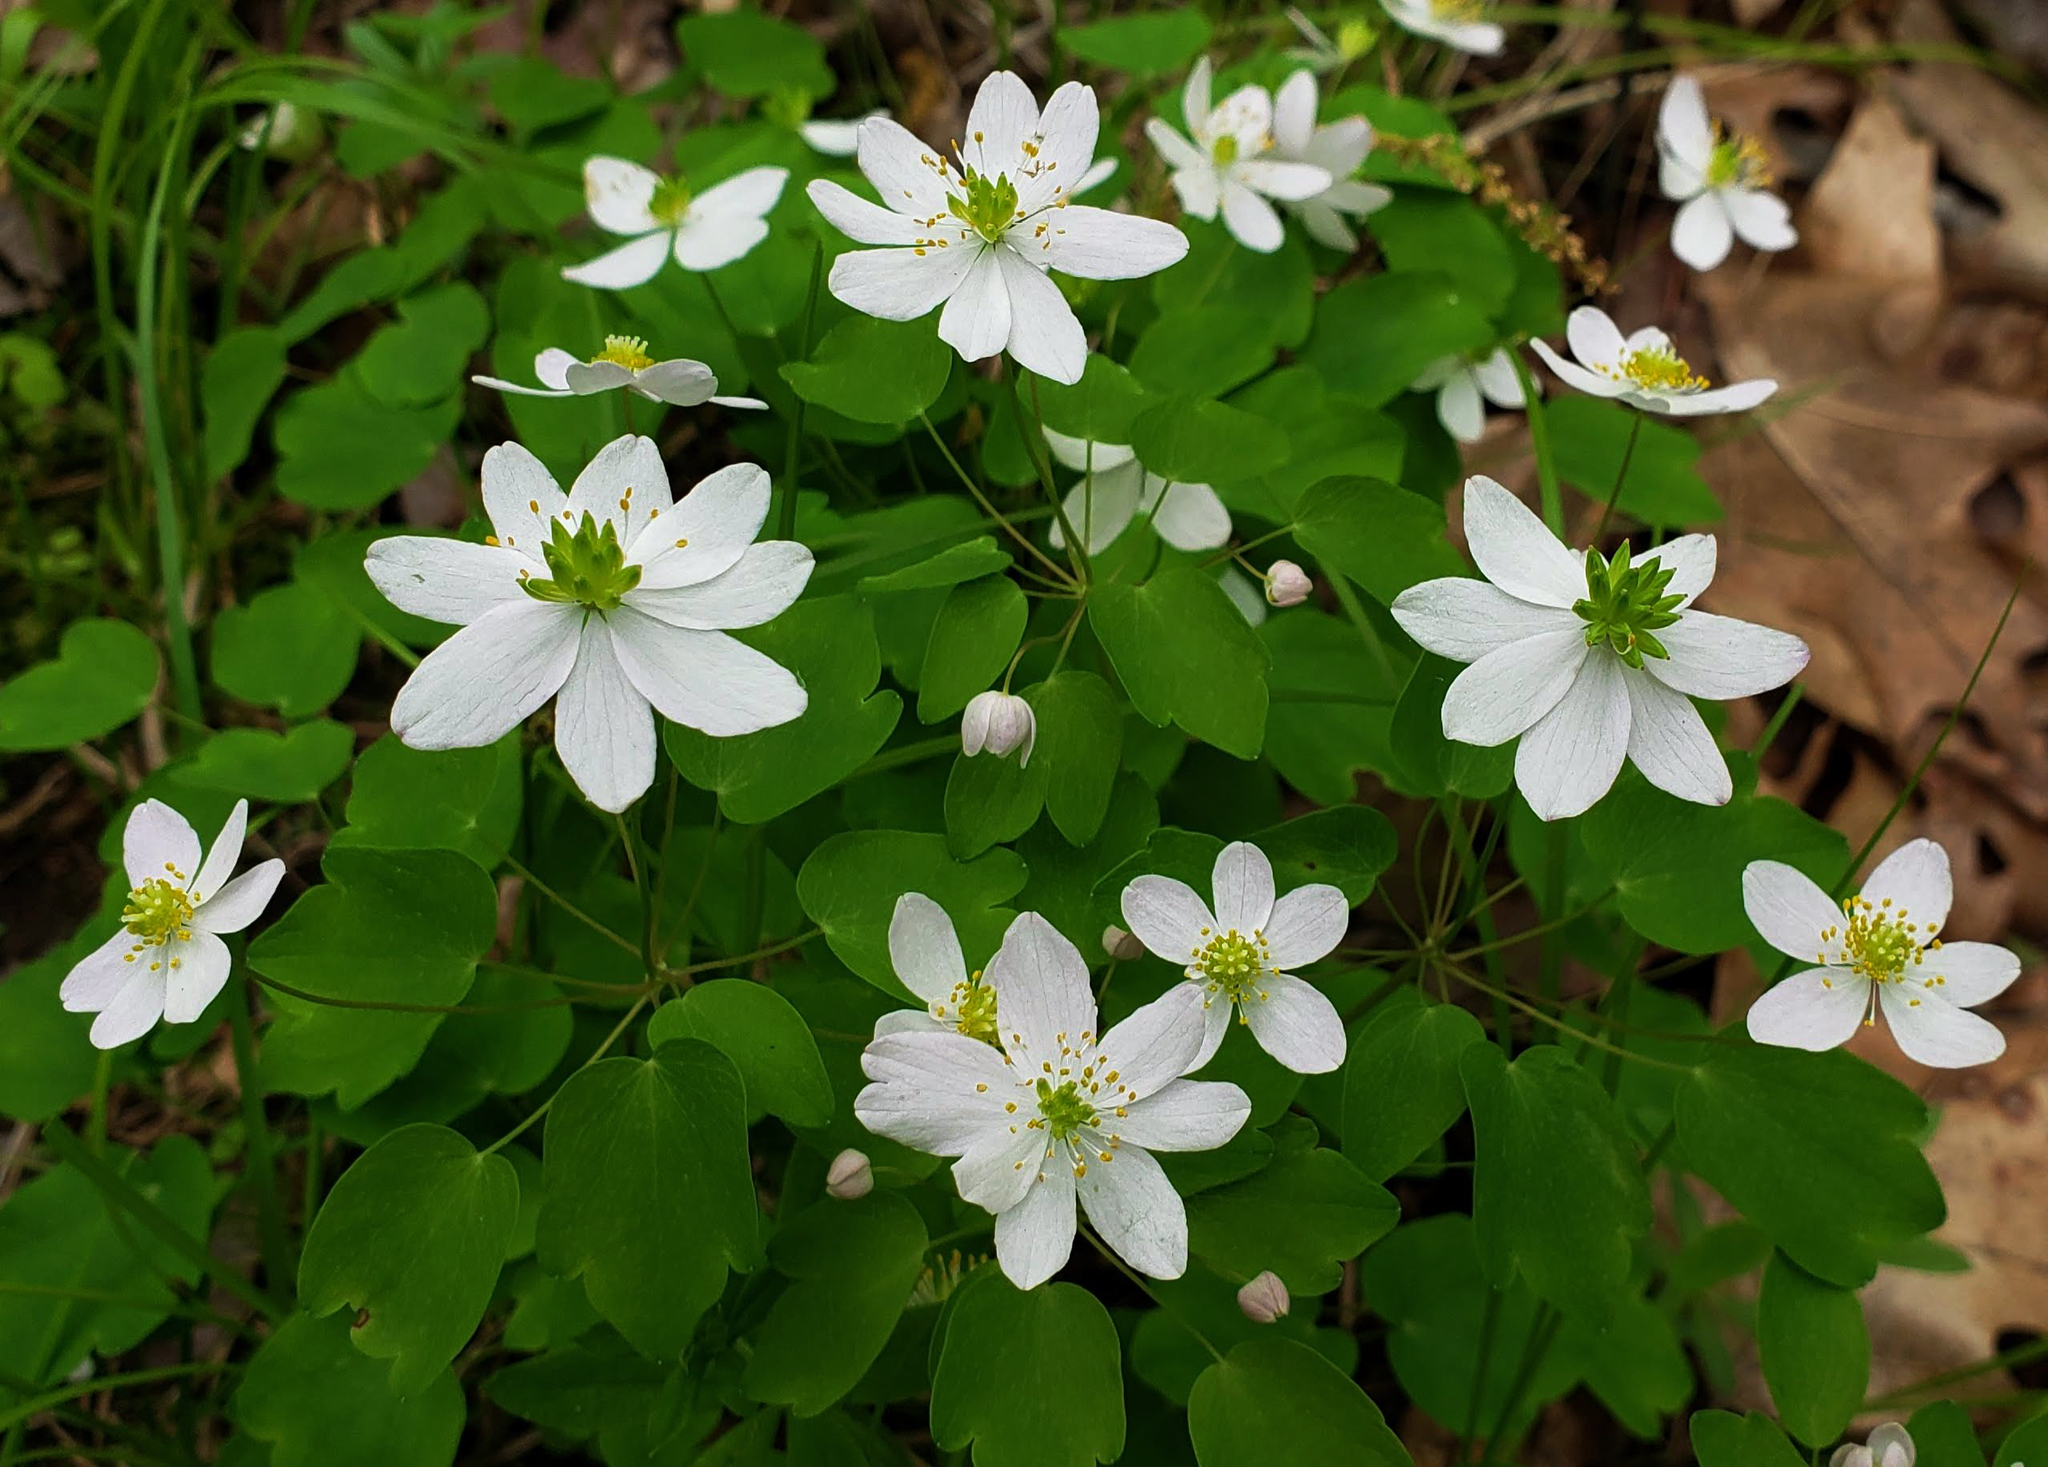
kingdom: Plantae
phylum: Tracheophyta
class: Magnoliopsida
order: Ranunculales
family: Ranunculaceae
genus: Thalictrum
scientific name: Thalictrum thalictroides
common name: Rue-anemone
